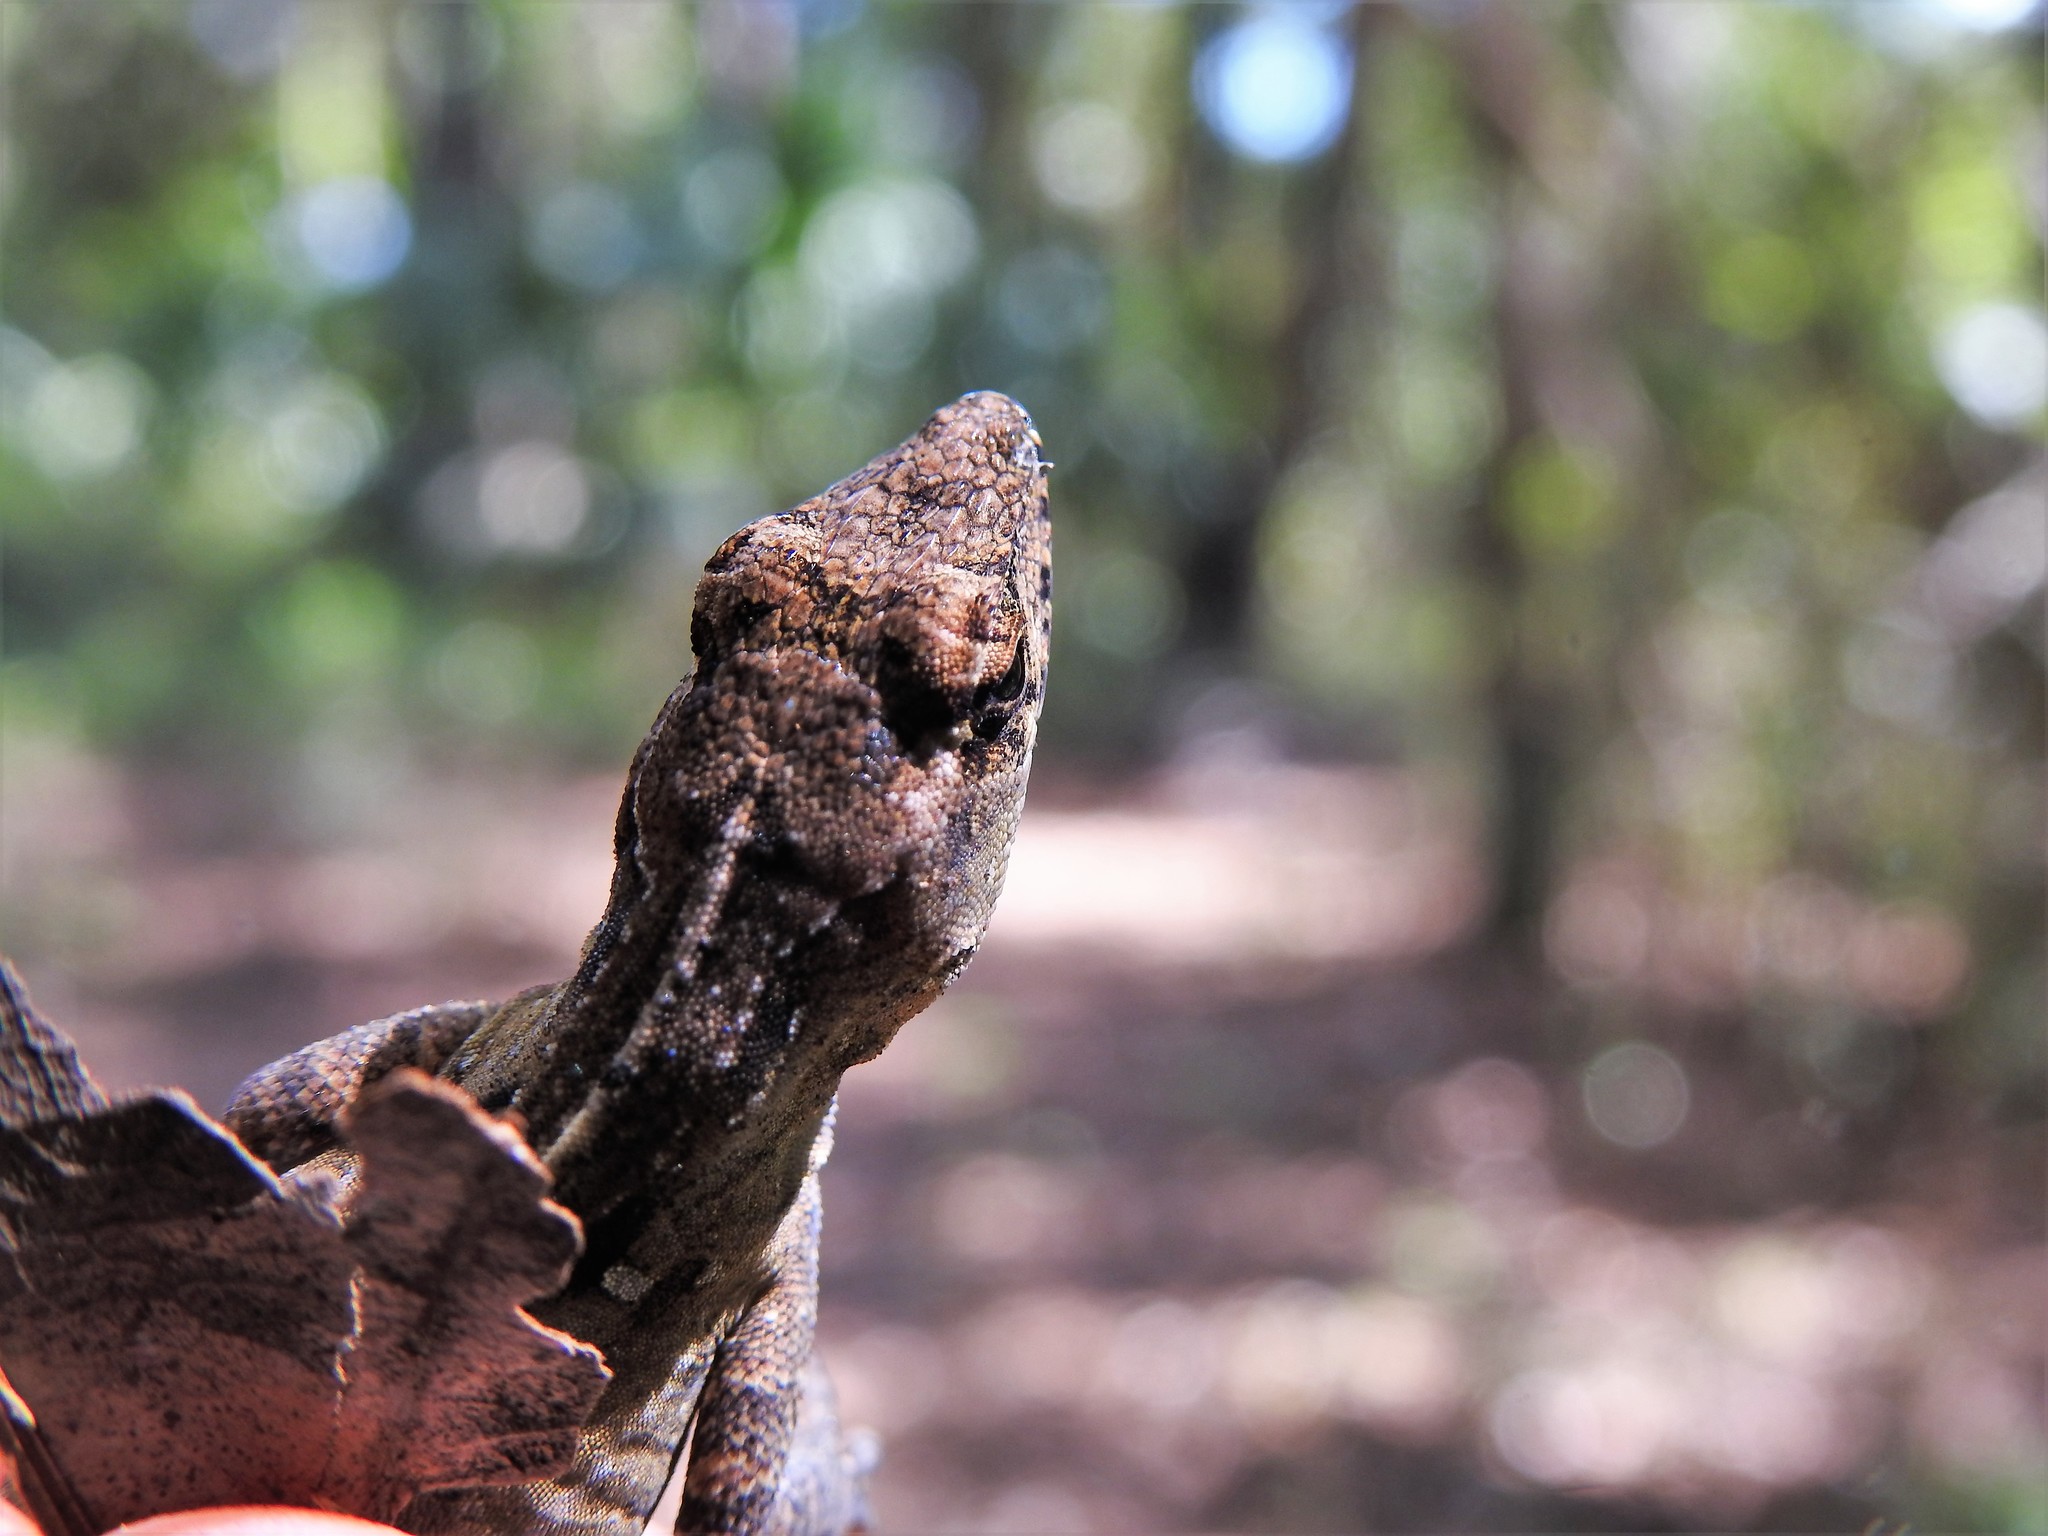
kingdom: Animalia
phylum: Chordata
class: Squamata
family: Dactyloidae
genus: Anolis
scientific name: Anolis sagrei
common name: Brown anole
